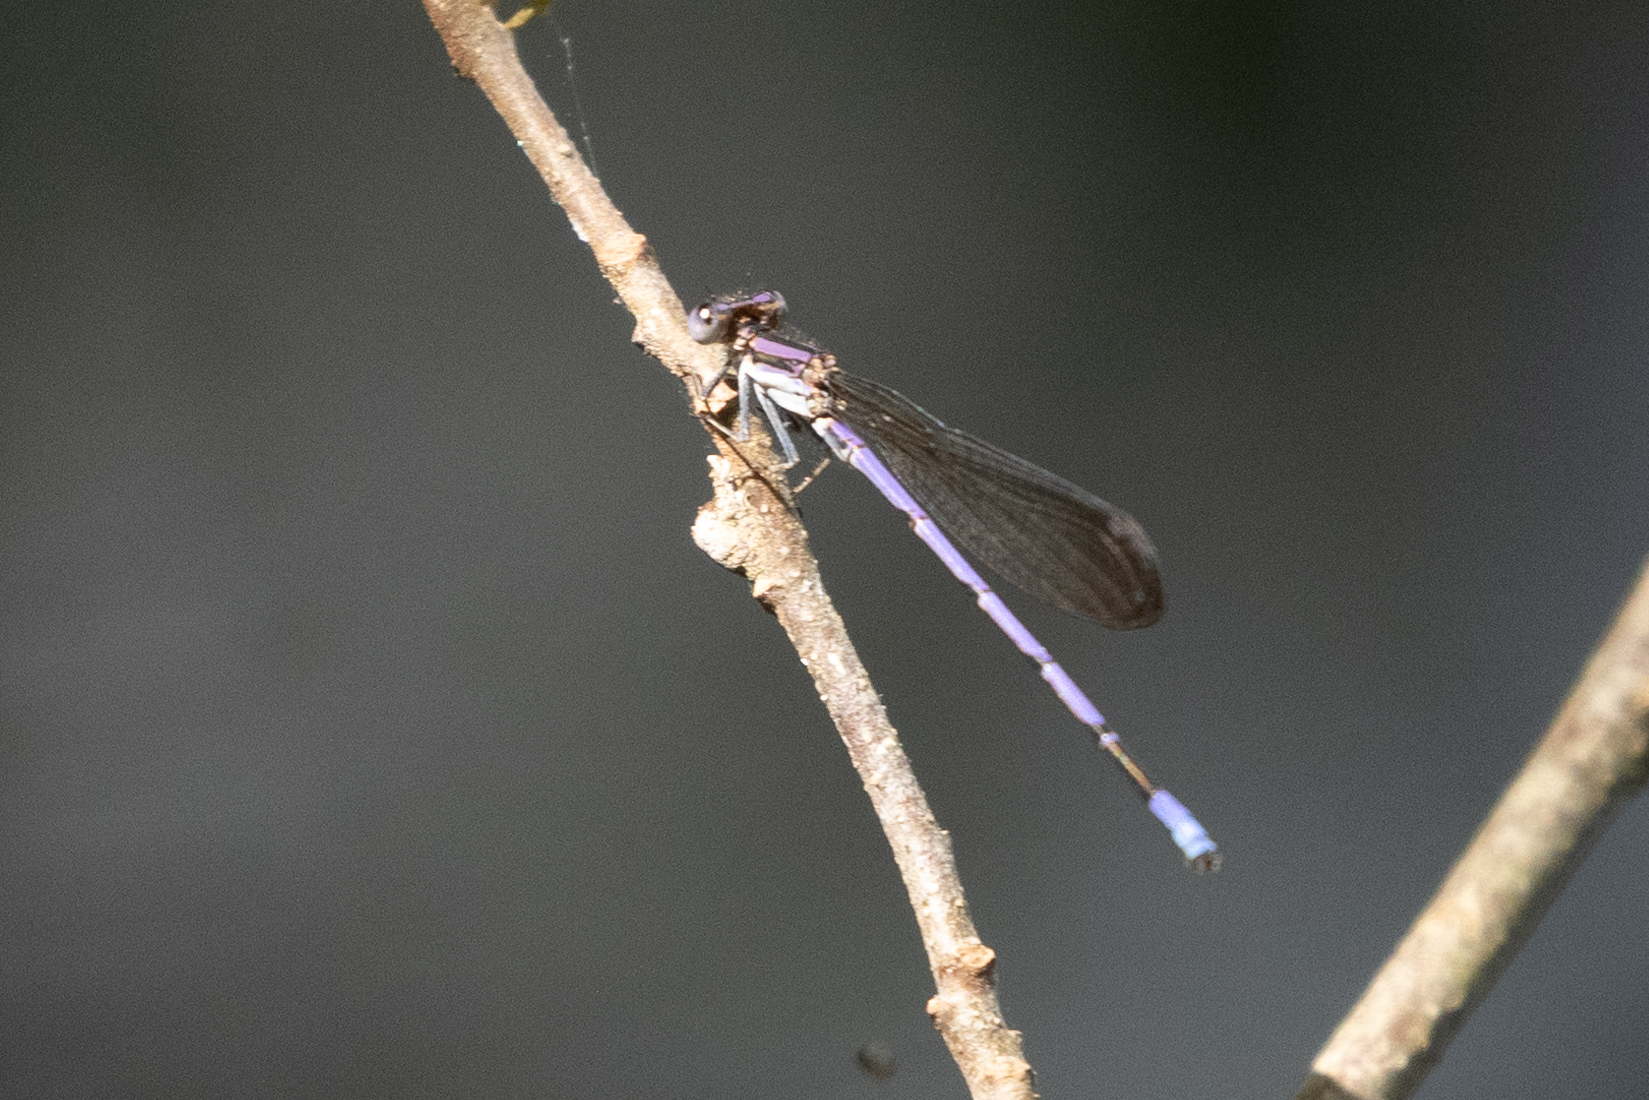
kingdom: Animalia
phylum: Arthropoda
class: Insecta
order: Odonata
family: Coenagrionidae
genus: Argia
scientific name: Argia fumipennis
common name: Variable dancer
